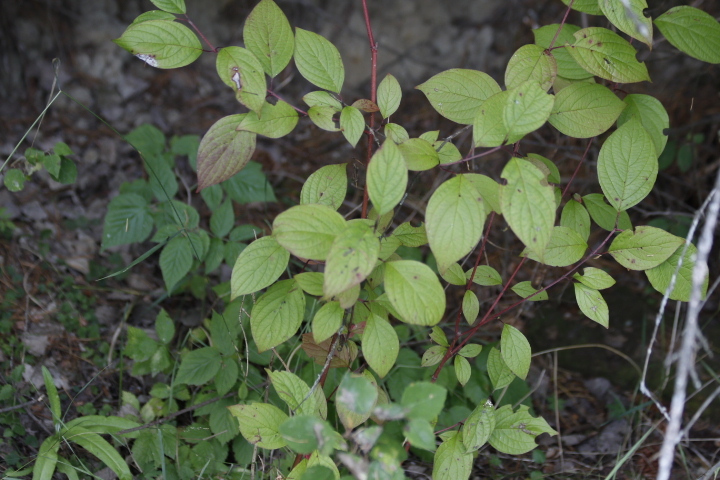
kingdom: Plantae
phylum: Tracheophyta
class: Magnoliopsida
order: Cornales
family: Cornaceae
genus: Cornus
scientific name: Cornus alba
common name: White dogwood
